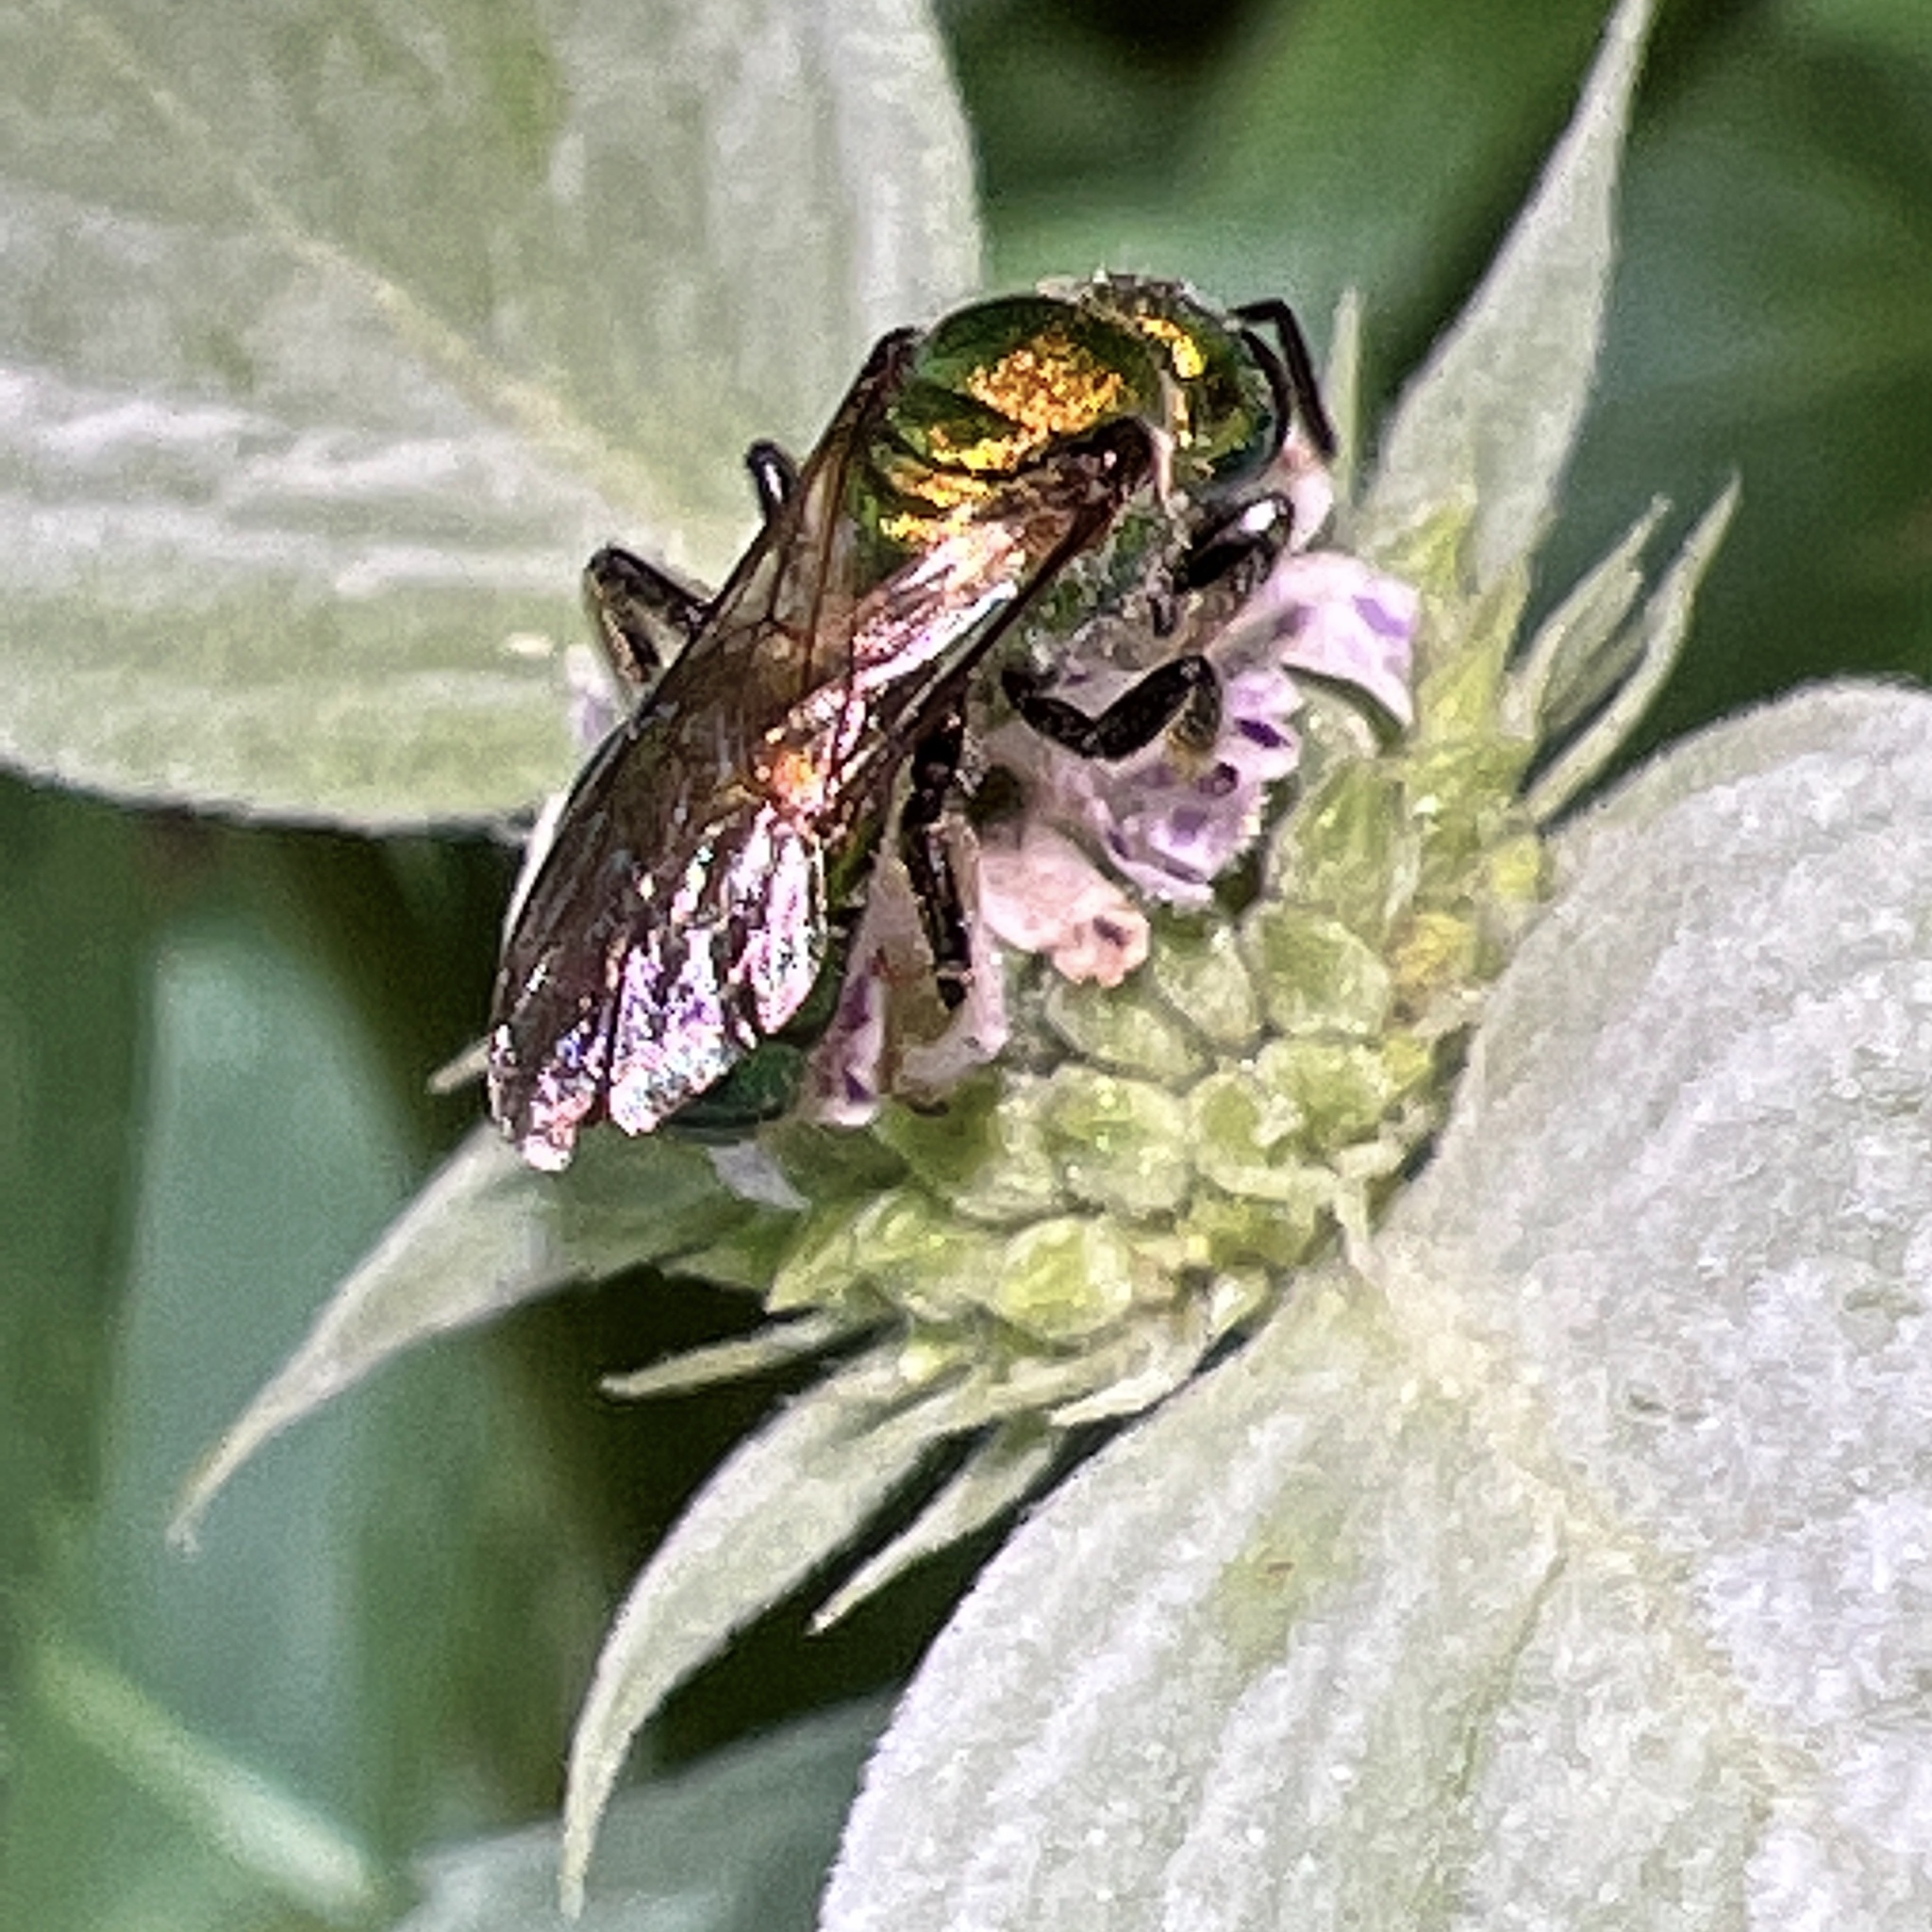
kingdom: Animalia
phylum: Arthropoda
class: Insecta
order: Hymenoptera
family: Halictidae
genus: Augochlora
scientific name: Augochlora pura
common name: Pure green sweat bee
